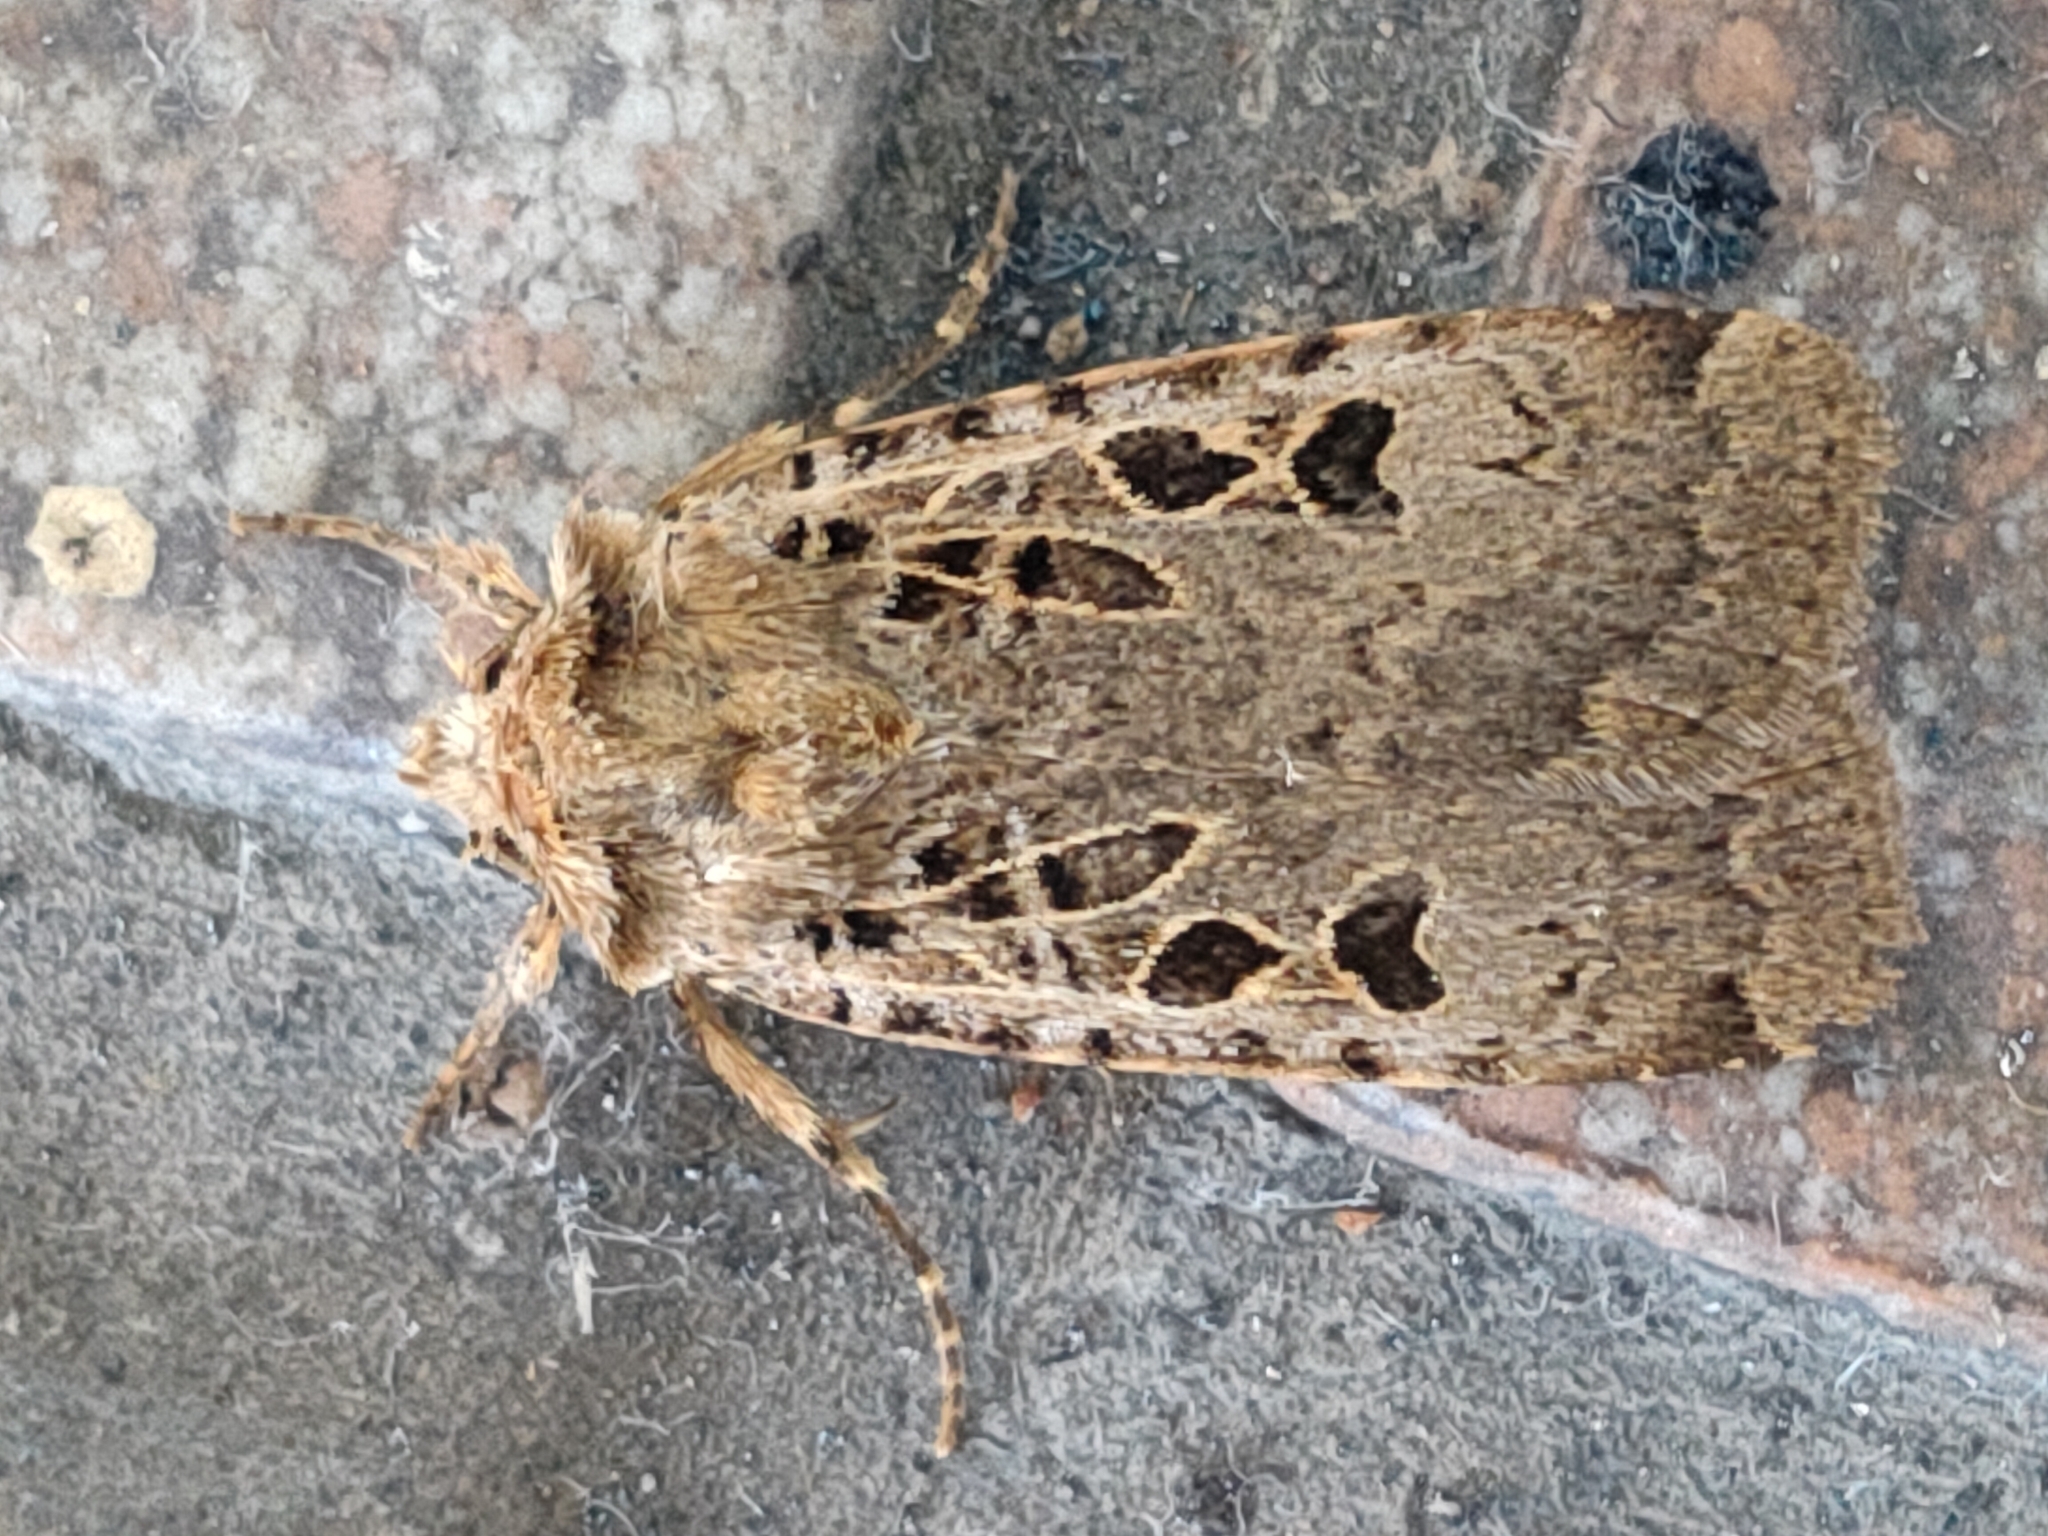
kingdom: Animalia
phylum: Arthropoda
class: Insecta
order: Lepidoptera
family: Noctuidae
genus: Hermonassa
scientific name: Hermonassa cecilia
